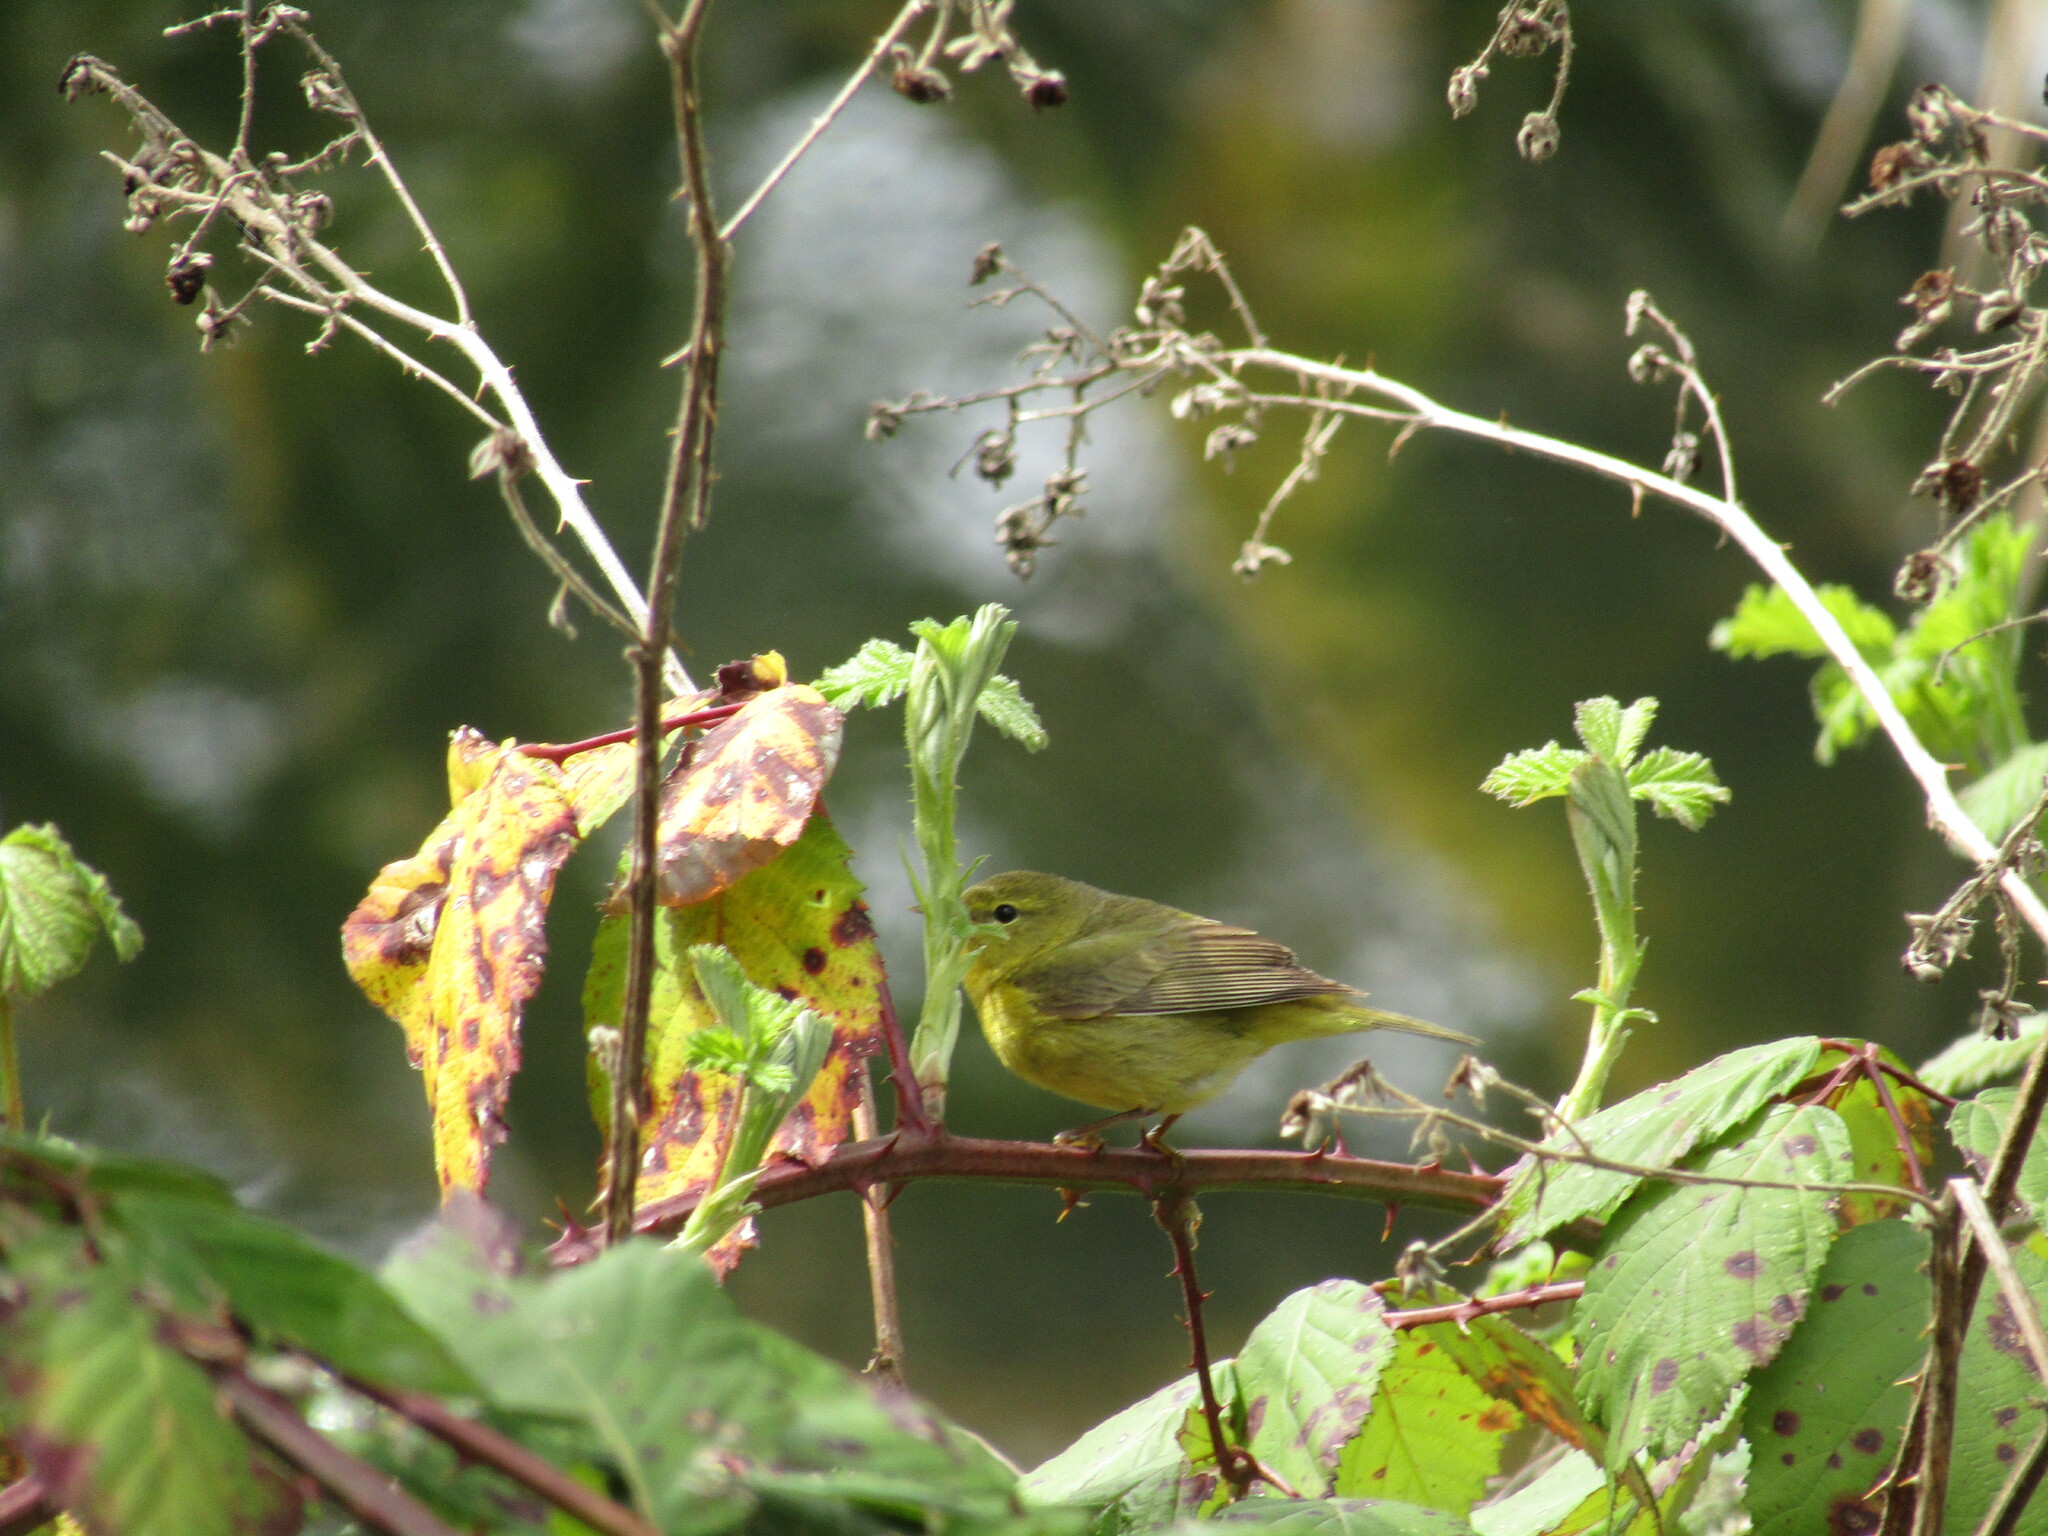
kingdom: Animalia
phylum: Chordata
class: Aves
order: Passeriformes
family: Parulidae
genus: Leiothlypis
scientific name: Leiothlypis celata
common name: Orange-crowned warbler
